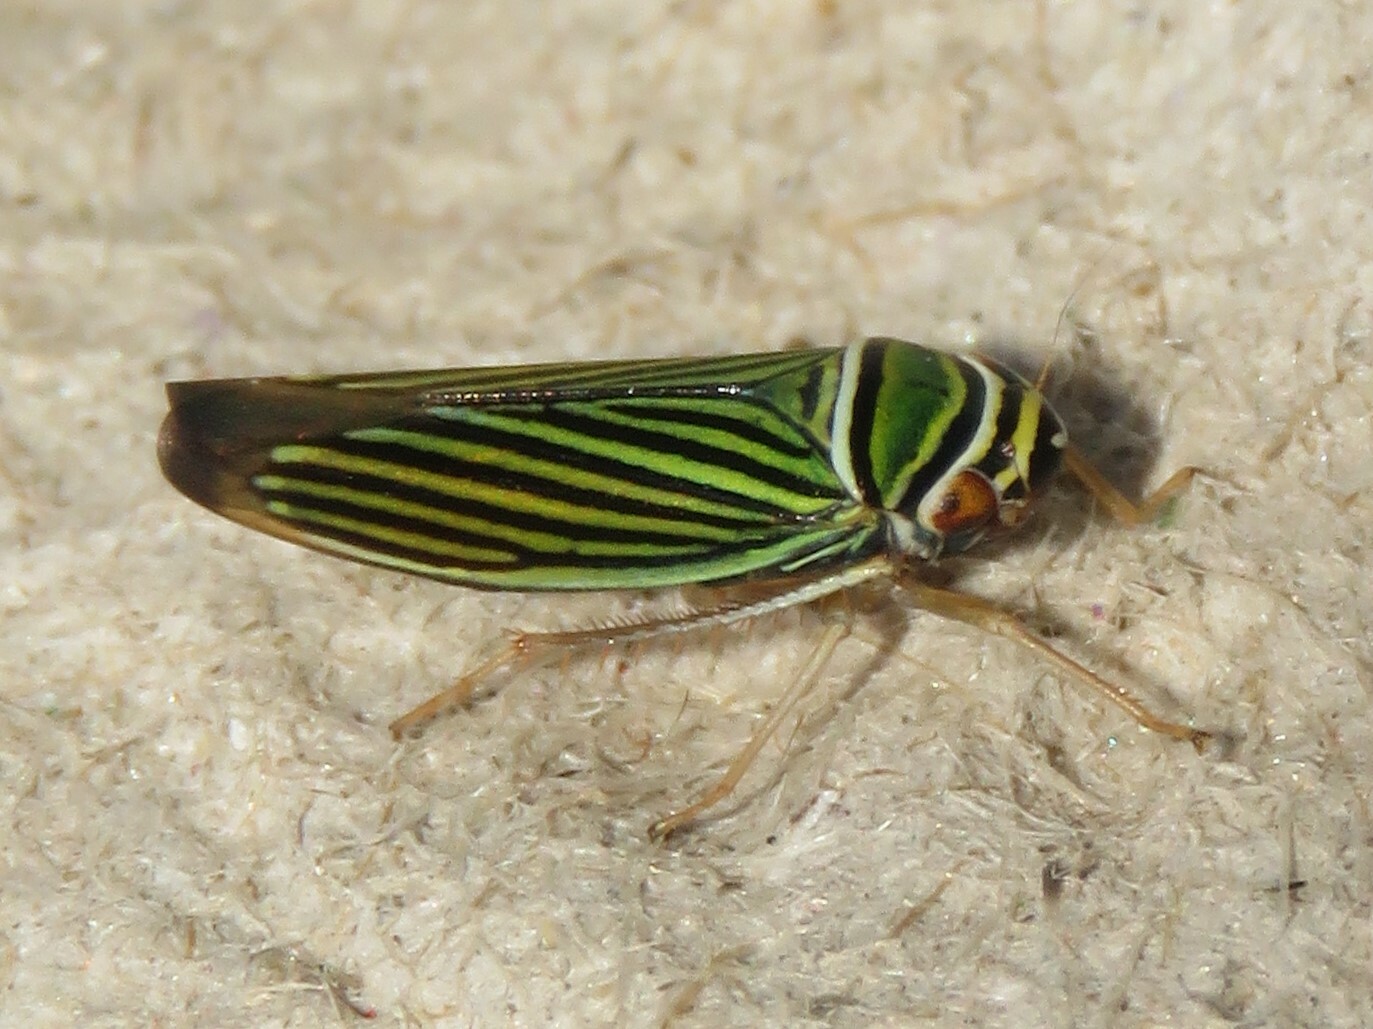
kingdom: Animalia
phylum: Arthropoda
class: Insecta
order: Hemiptera
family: Cicadellidae
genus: Tylozygus
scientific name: Tylozygus bifidus
